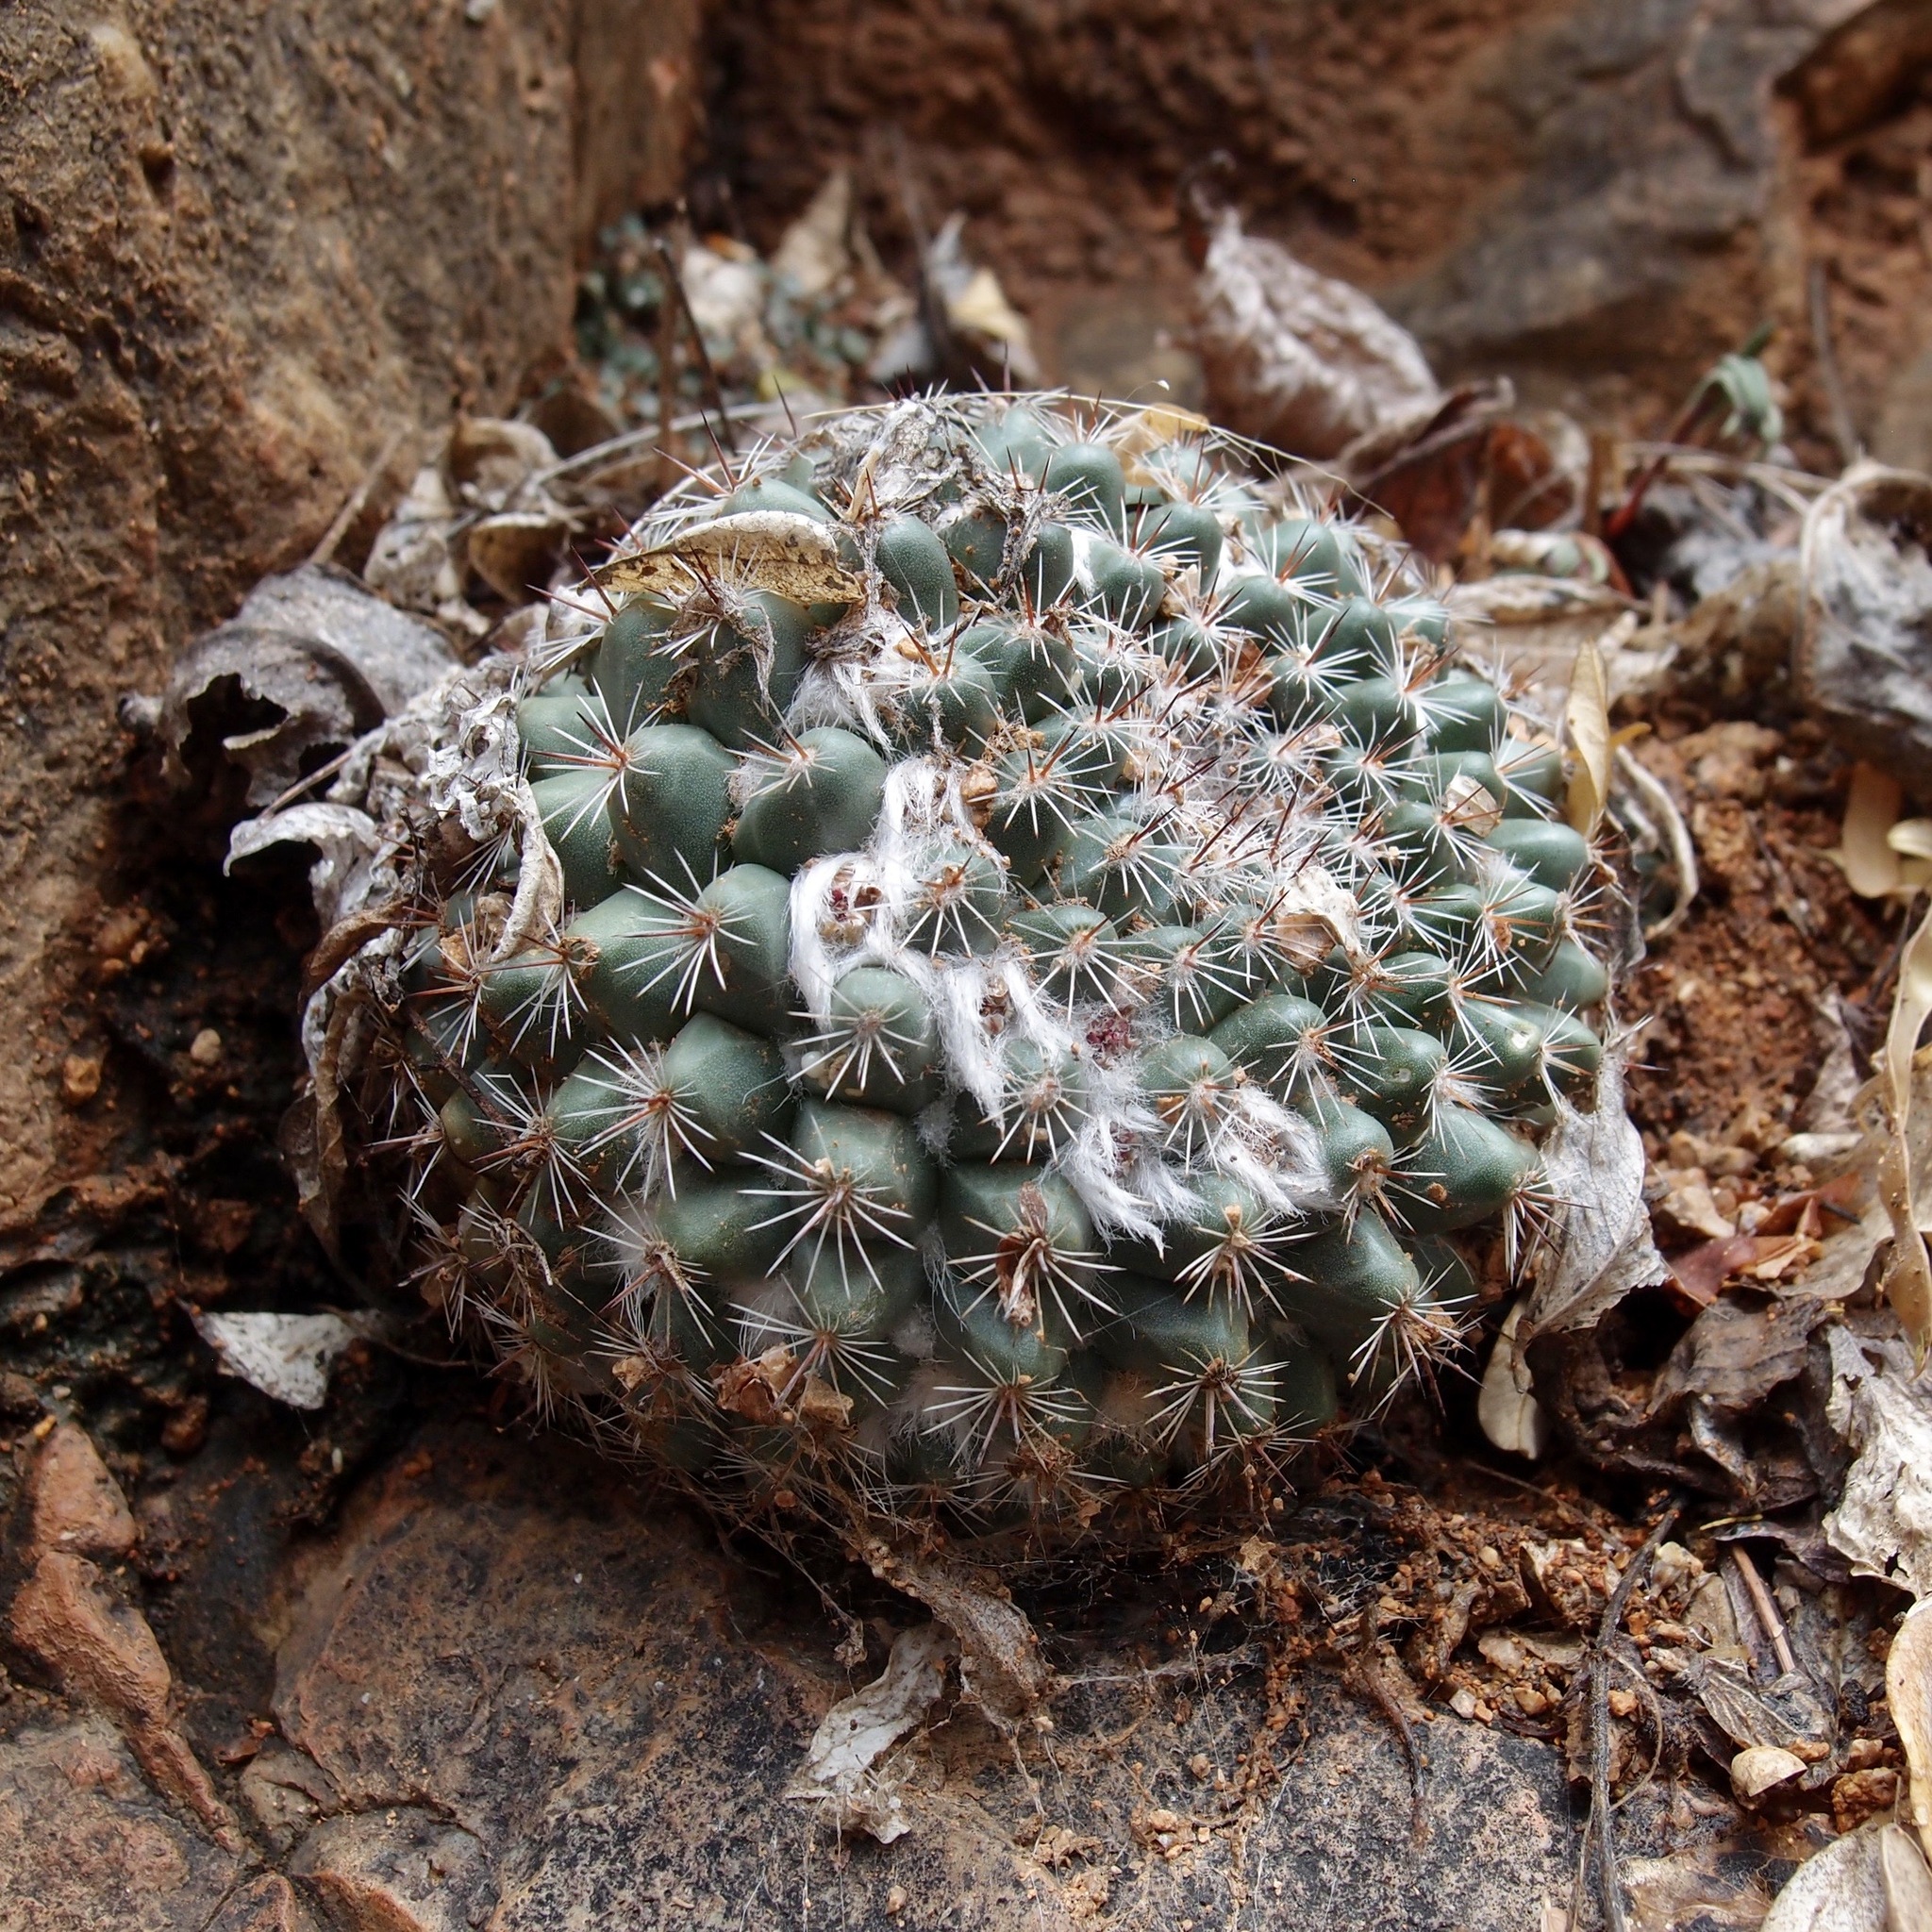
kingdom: Plantae
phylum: Tracheophyta
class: Magnoliopsida
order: Caryophyllales
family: Cactaceae
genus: Mammillaria
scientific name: Mammillaria standleyi
